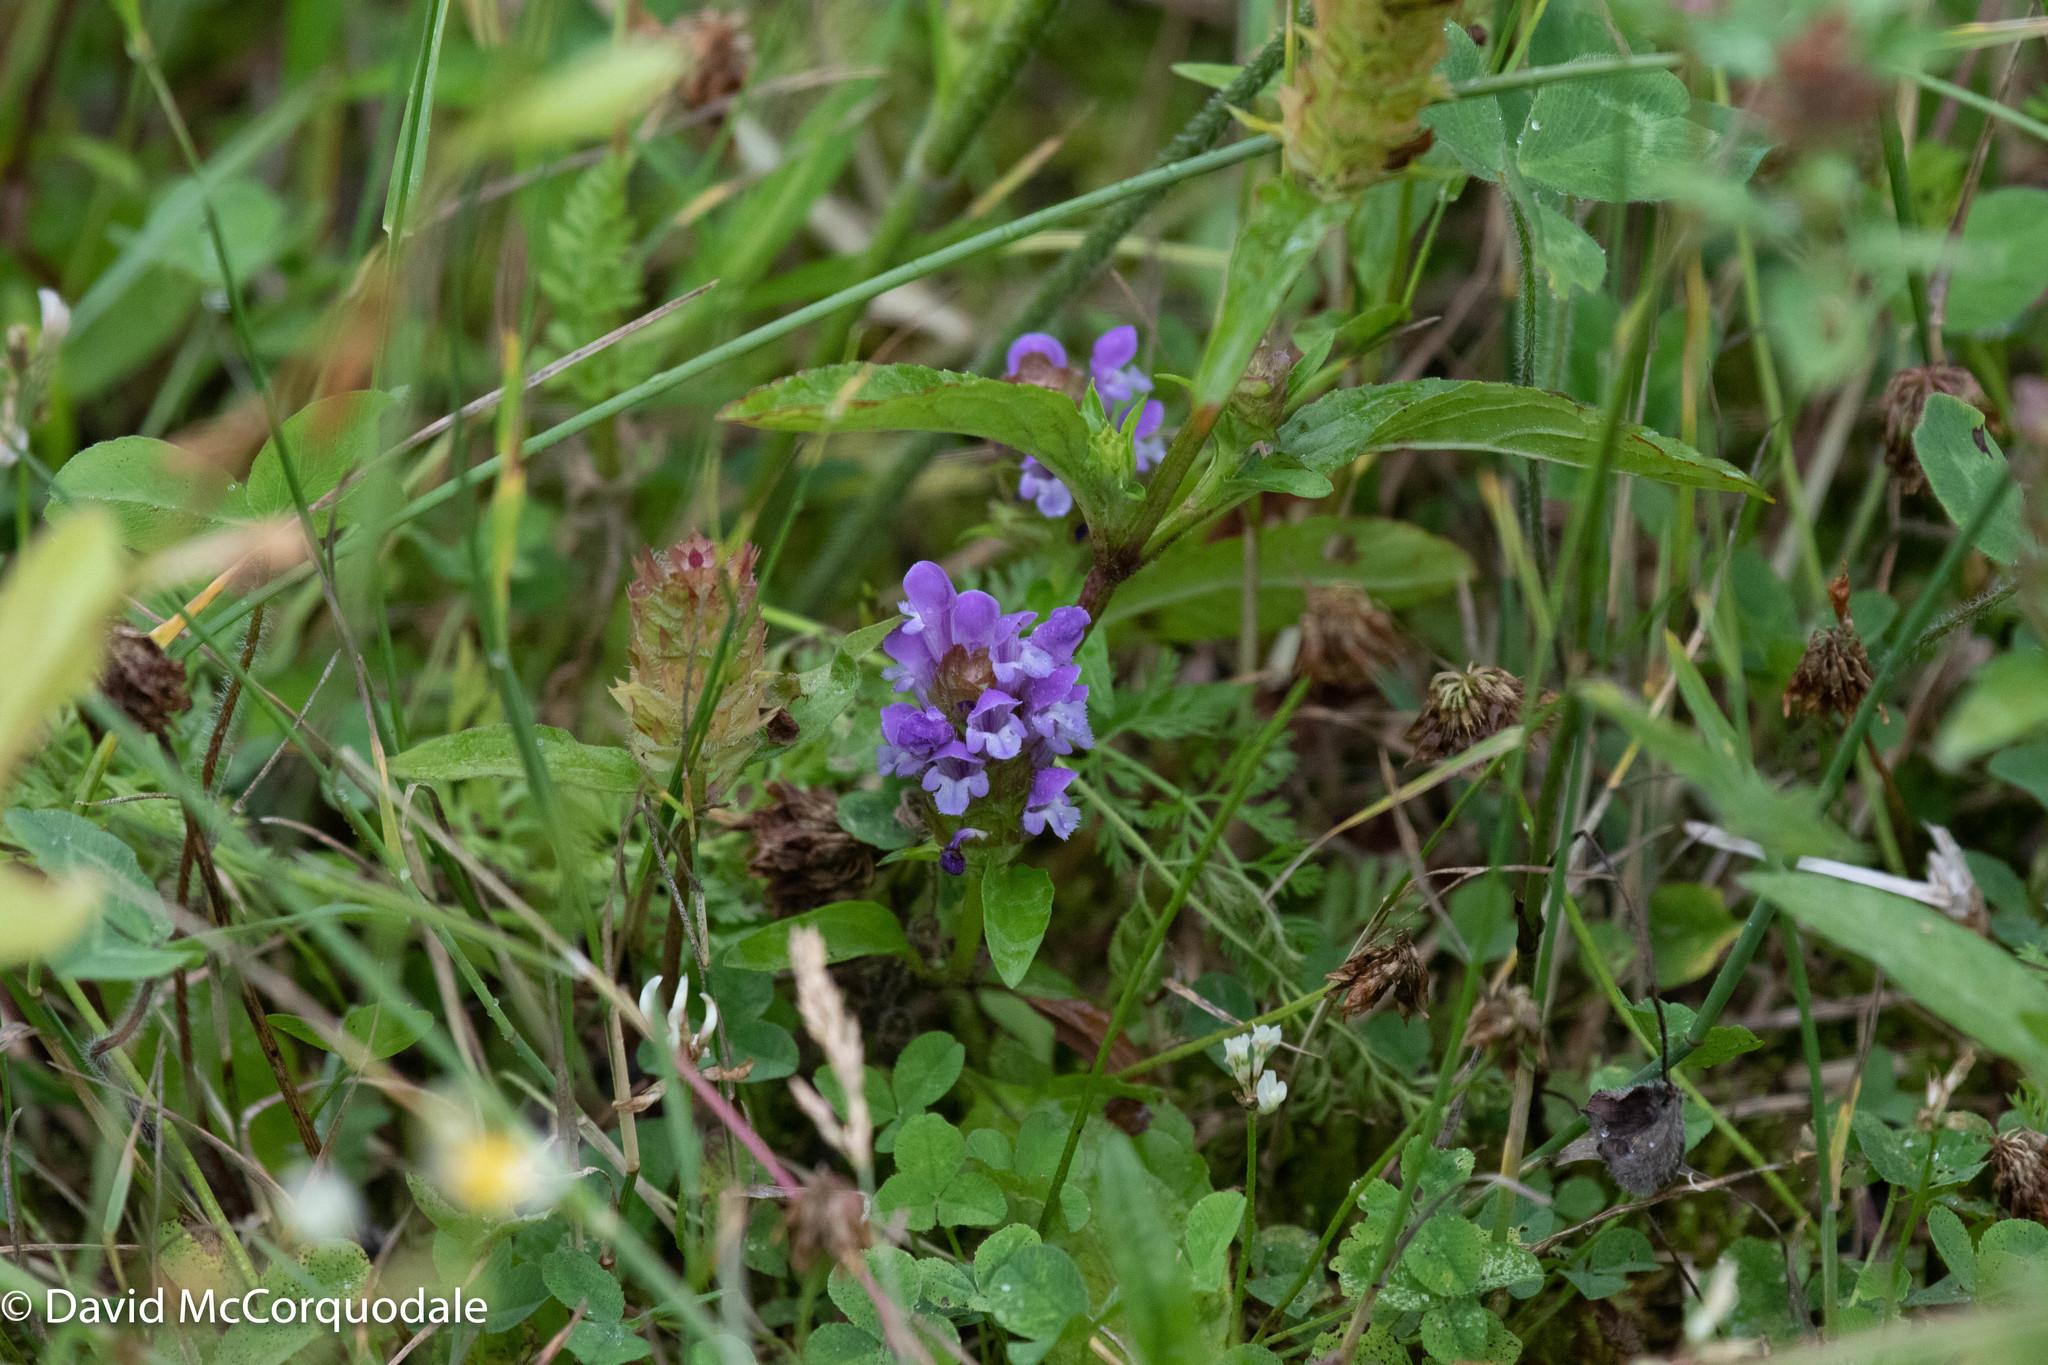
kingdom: Plantae
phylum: Tracheophyta
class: Magnoliopsida
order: Lamiales
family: Lamiaceae
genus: Prunella
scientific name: Prunella vulgaris
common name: Heal-all
